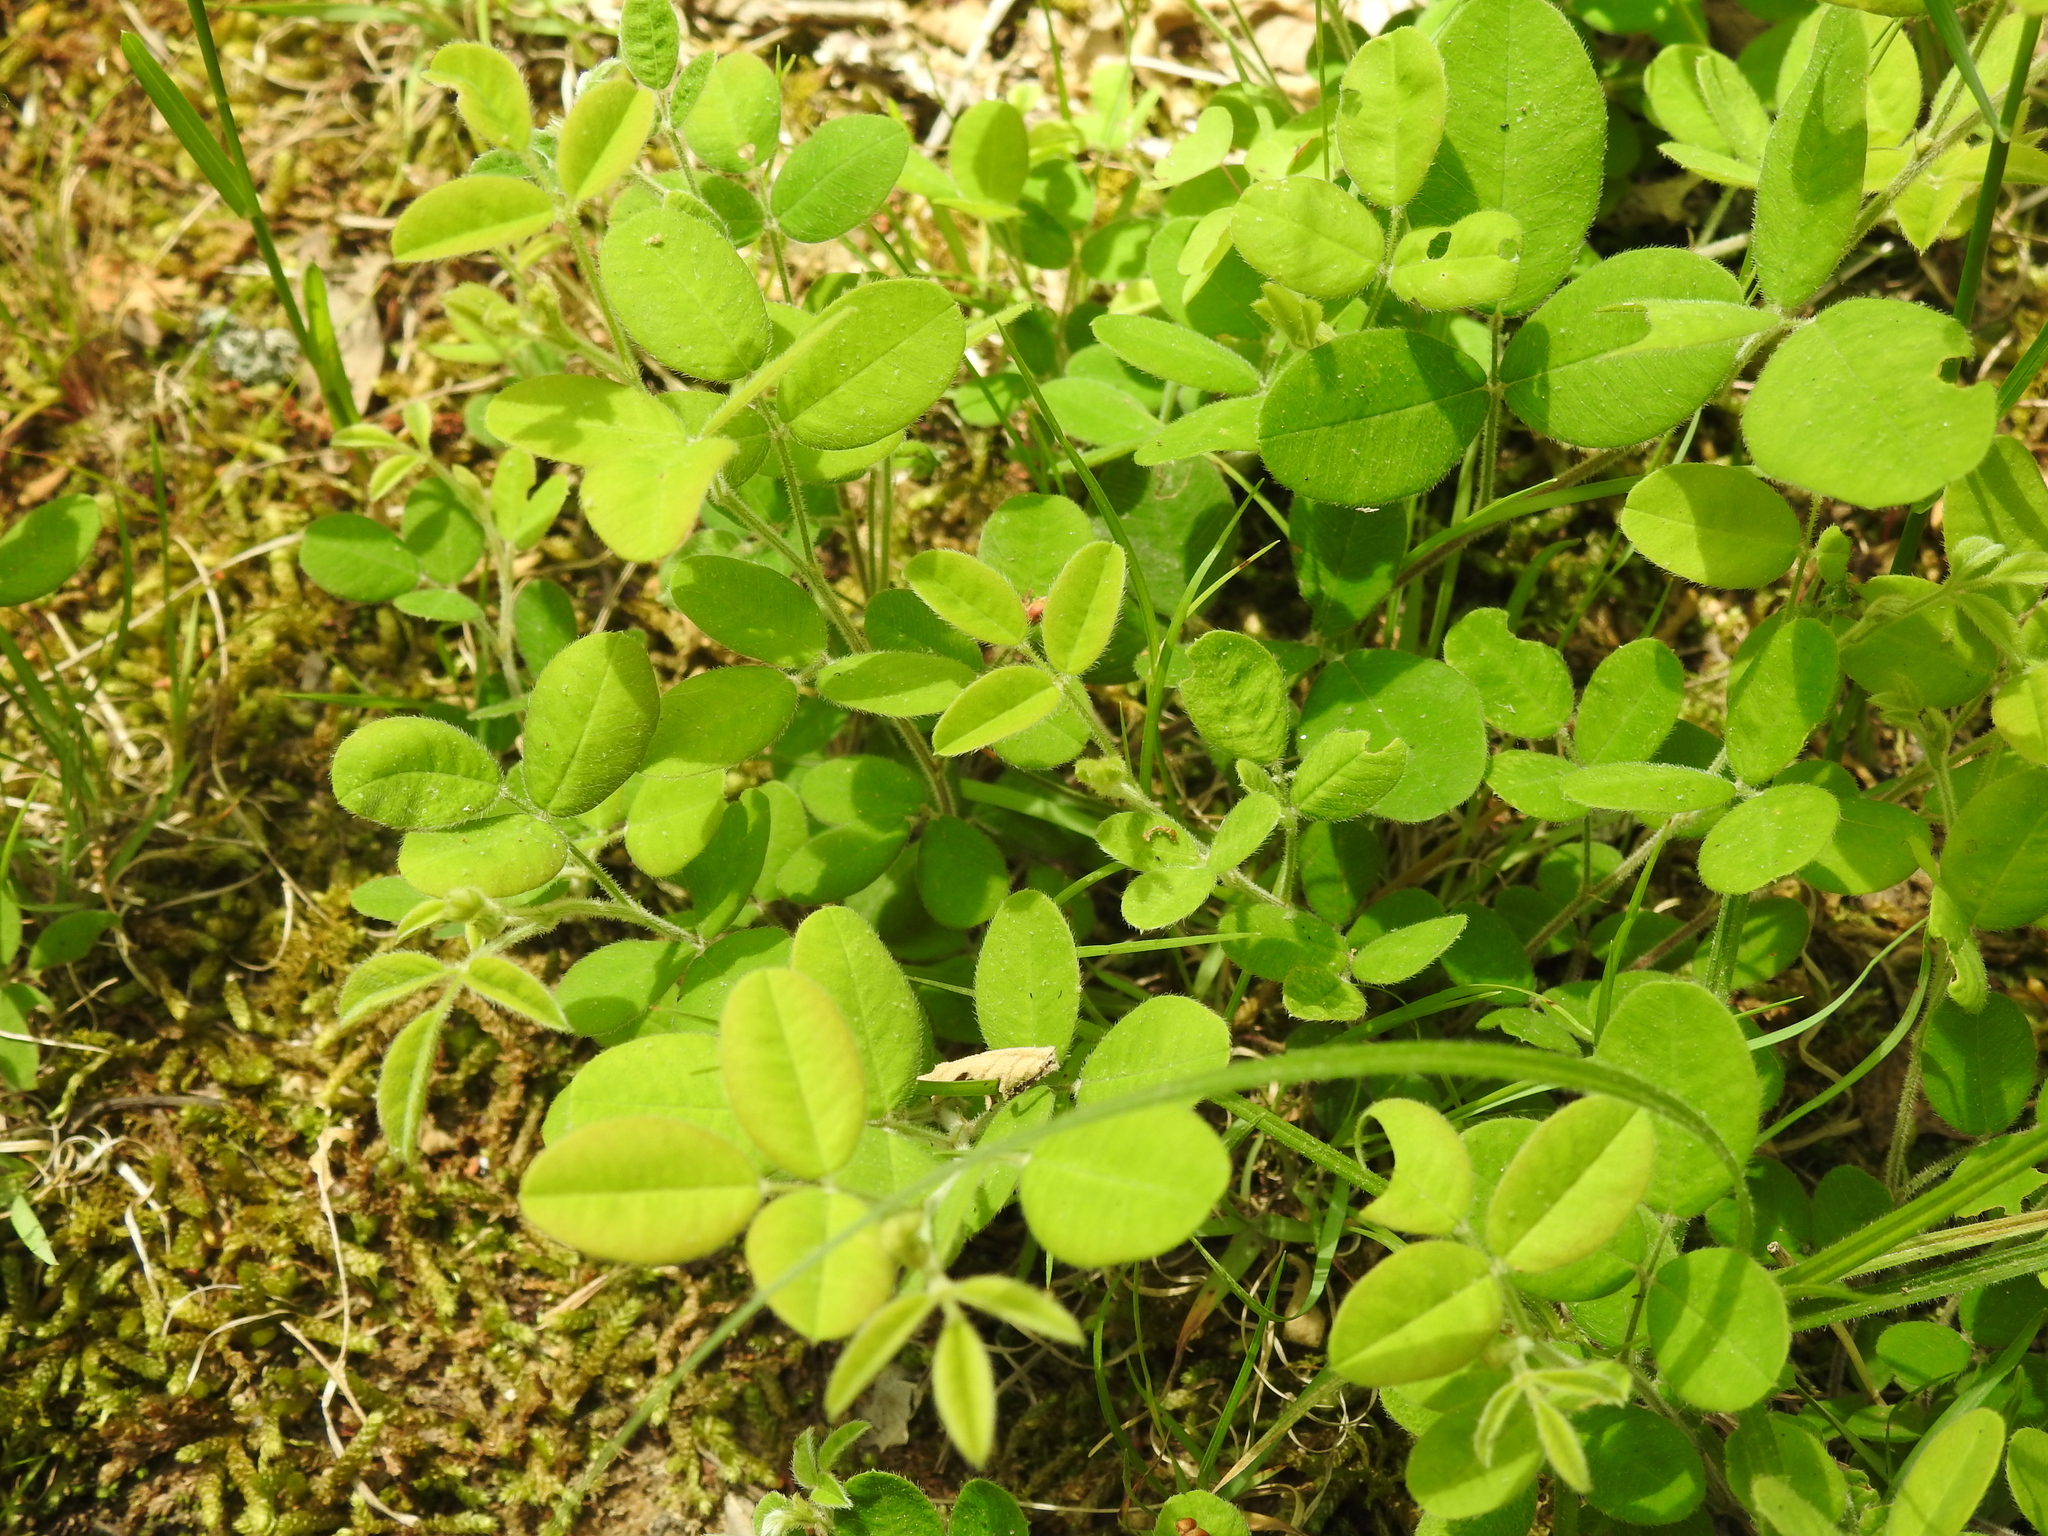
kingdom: Plantae
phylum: Tracheophyta
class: Magnoliopsida
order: Fabales
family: Fabaceae
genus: Lespedeza
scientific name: Lespedeza procumbens
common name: Downy trailing bush-clover
